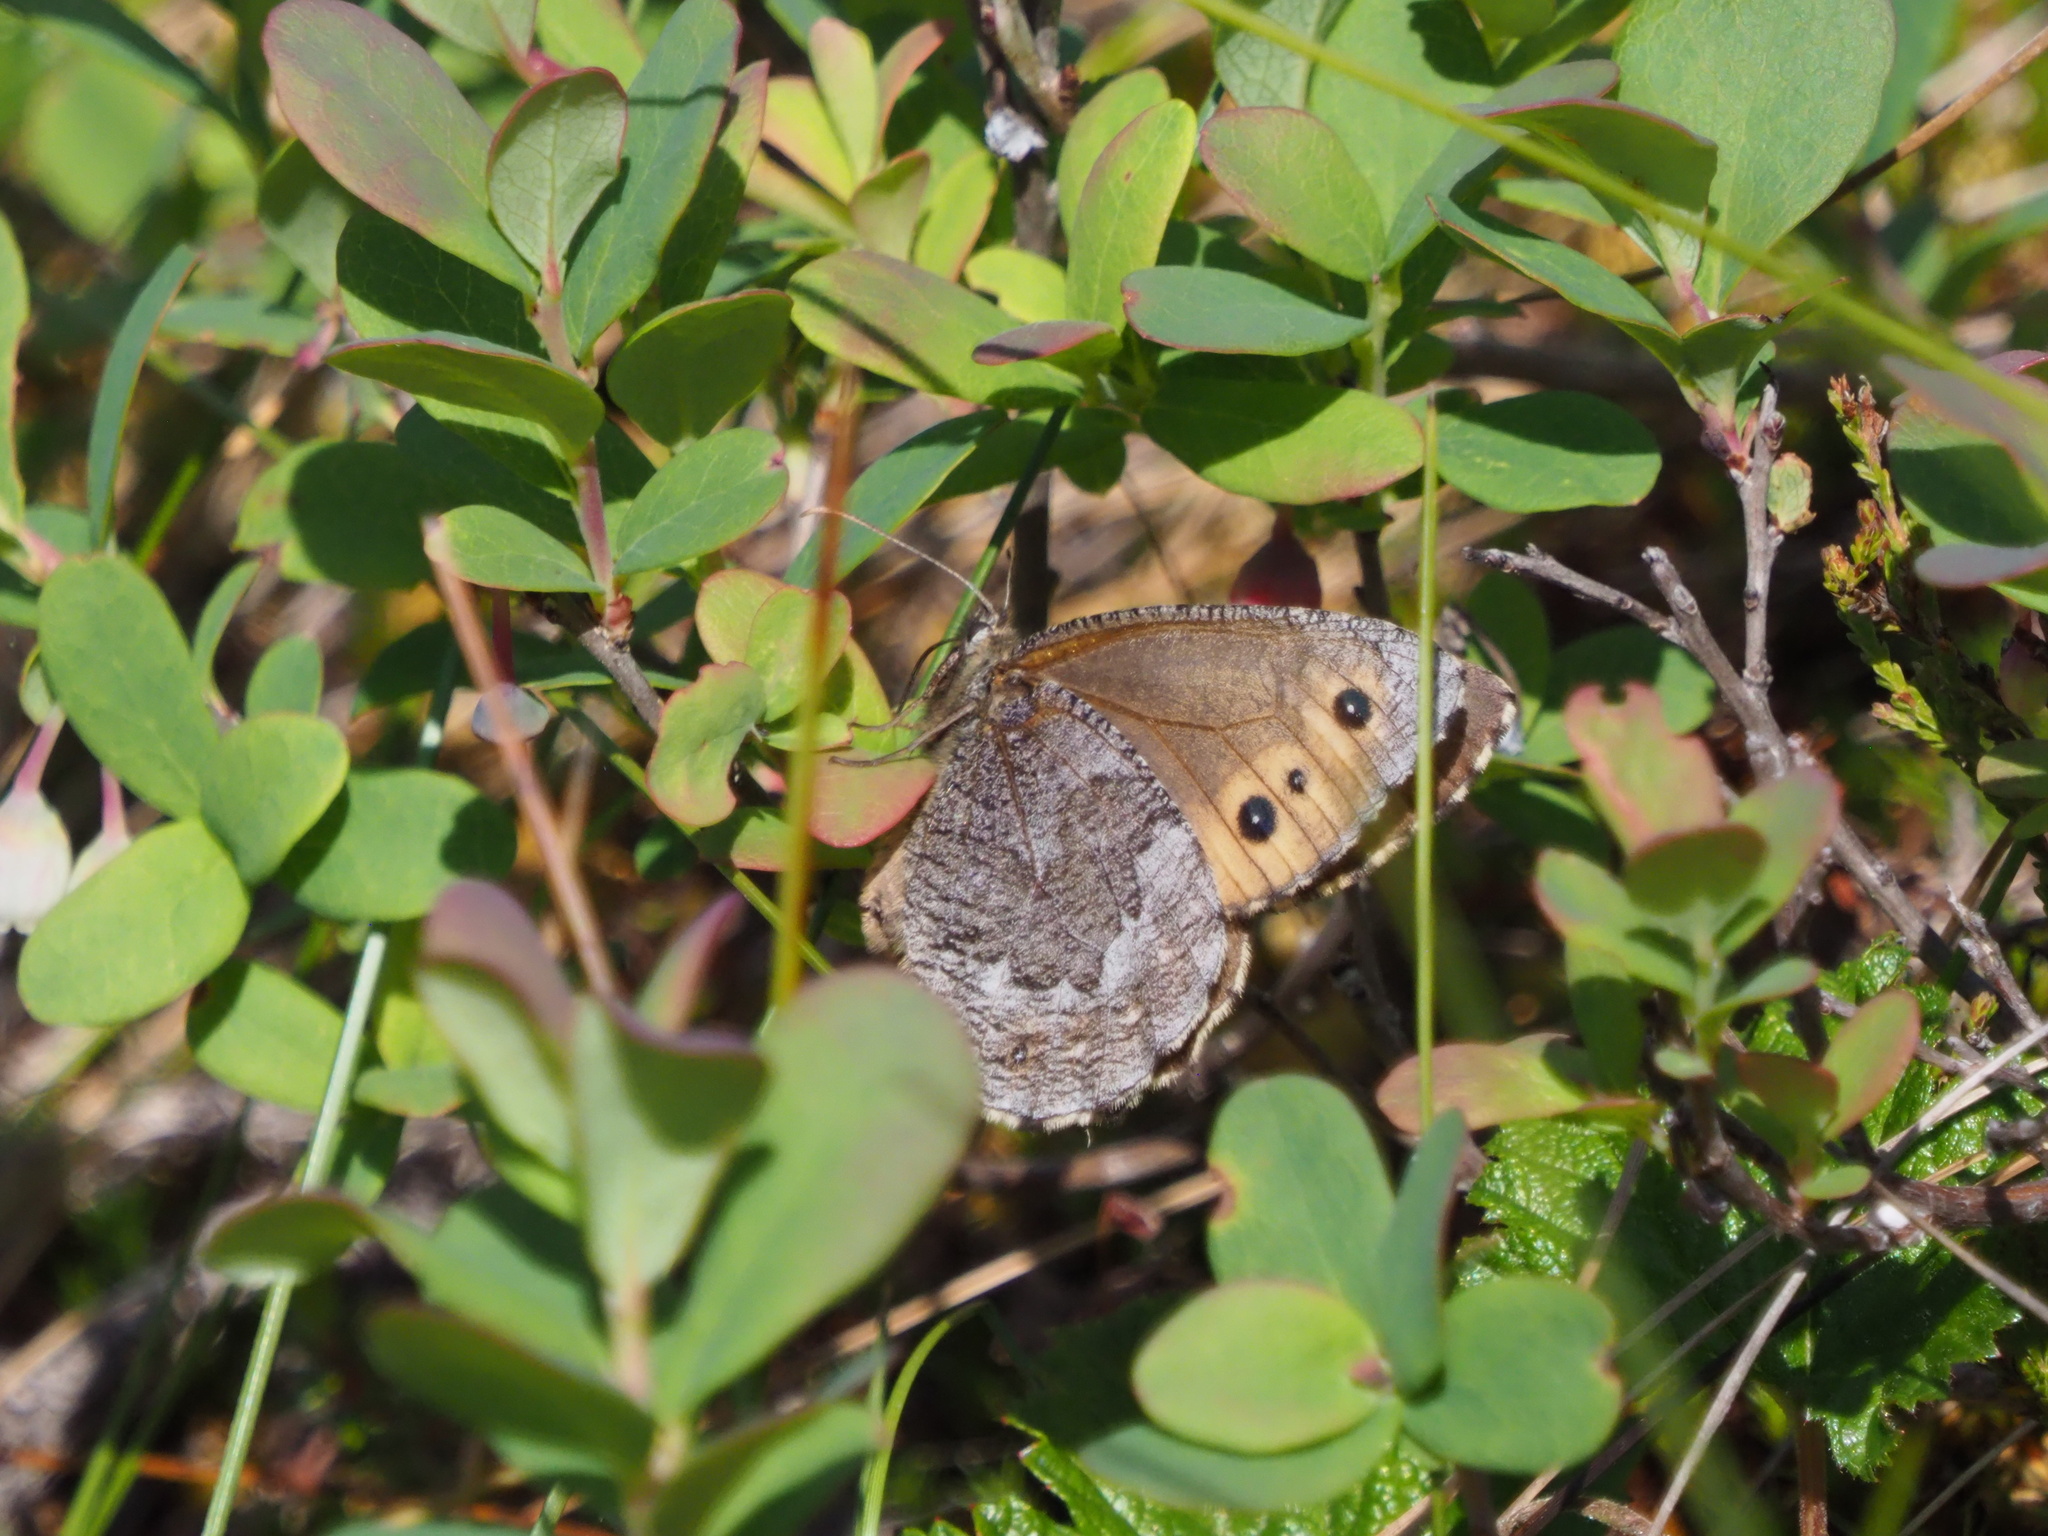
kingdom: Animalia
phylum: Arthropoda
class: Insecta
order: Lepidoptera
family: Nymphalidae
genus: Oeneis
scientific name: Oeneis jutta
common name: Baltic grayling
